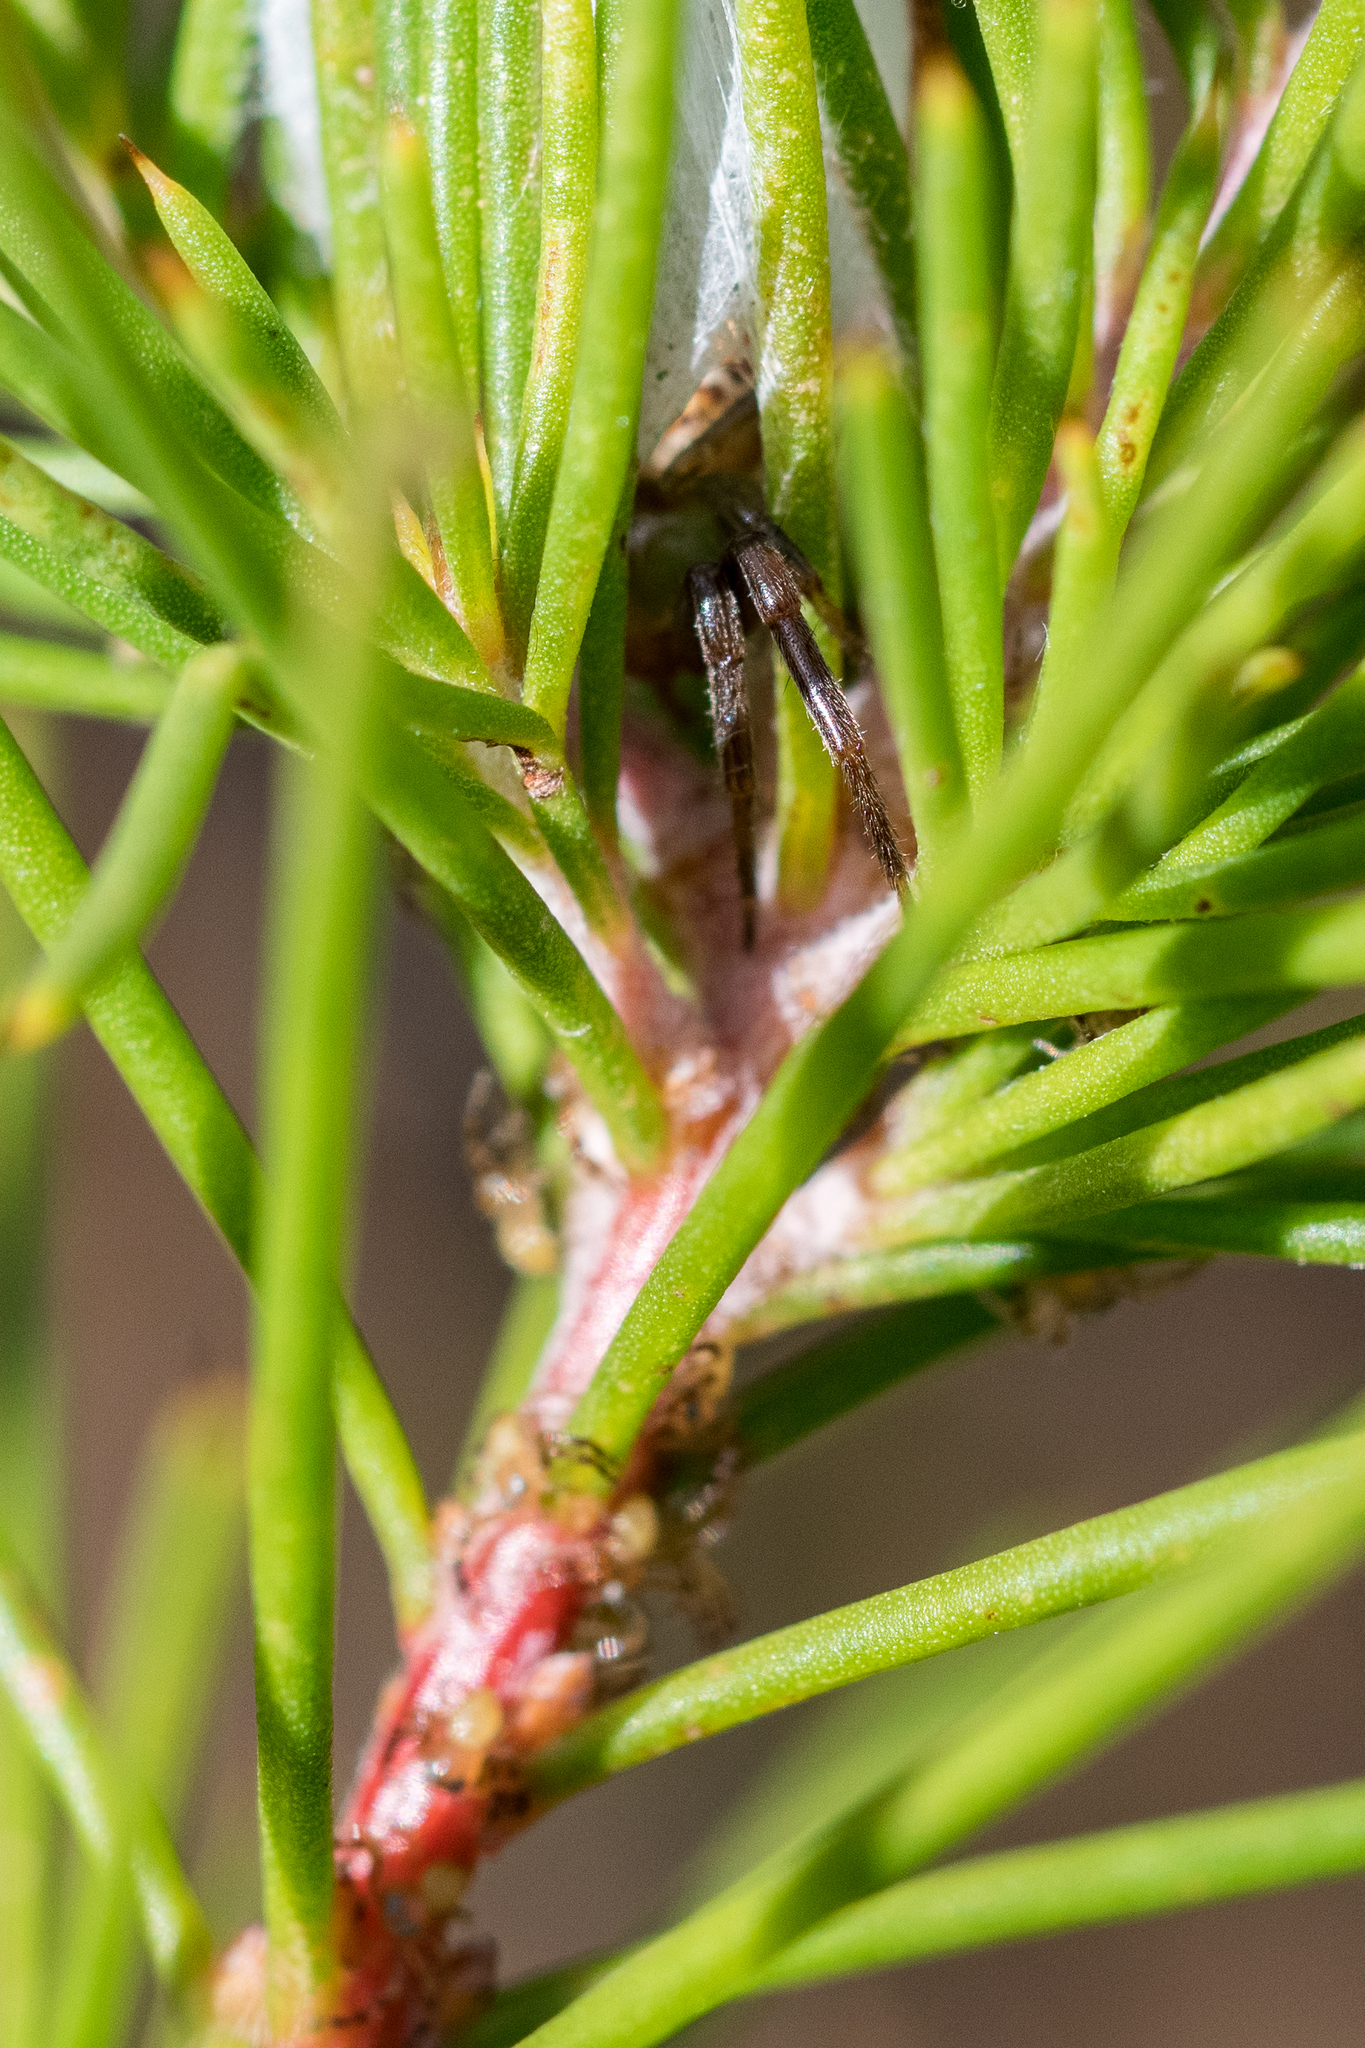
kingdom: Animalia
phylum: Arthropoda
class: Arachnida
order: Araneae
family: Thomisidae
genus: Synema
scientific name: Synema imitatrix
